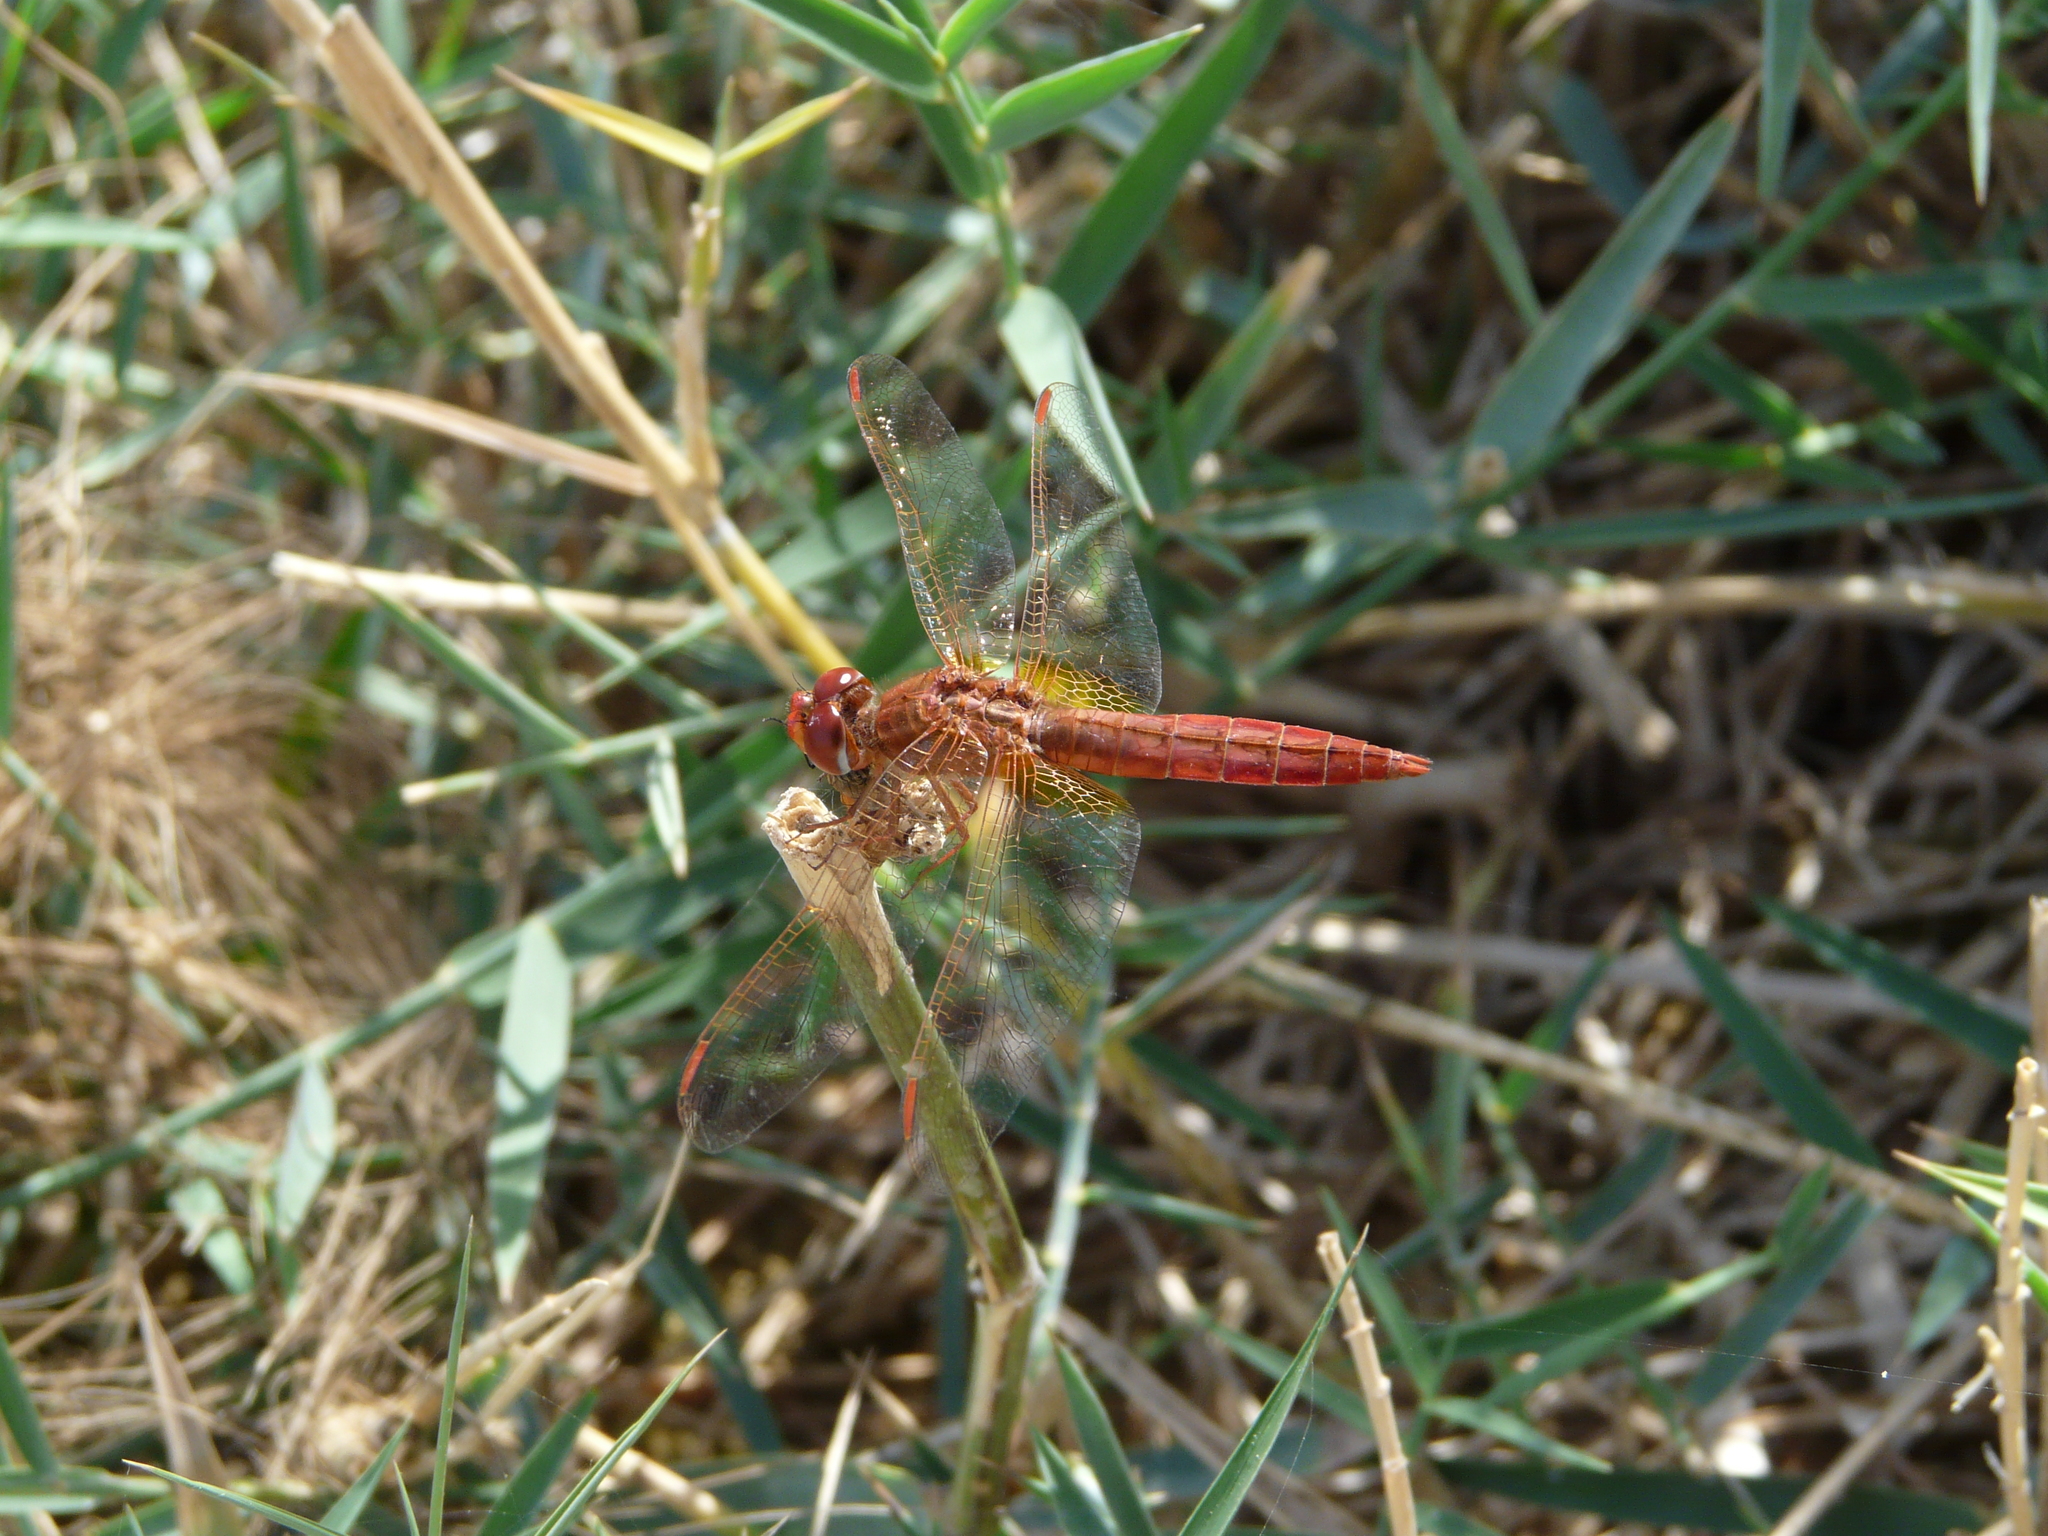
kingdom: Animalia
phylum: Arthropoda
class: Insecta
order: Odonata
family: Libellulidae
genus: Crocothemis
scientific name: Crocothemis erythraea
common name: Scarlet dragonfly
